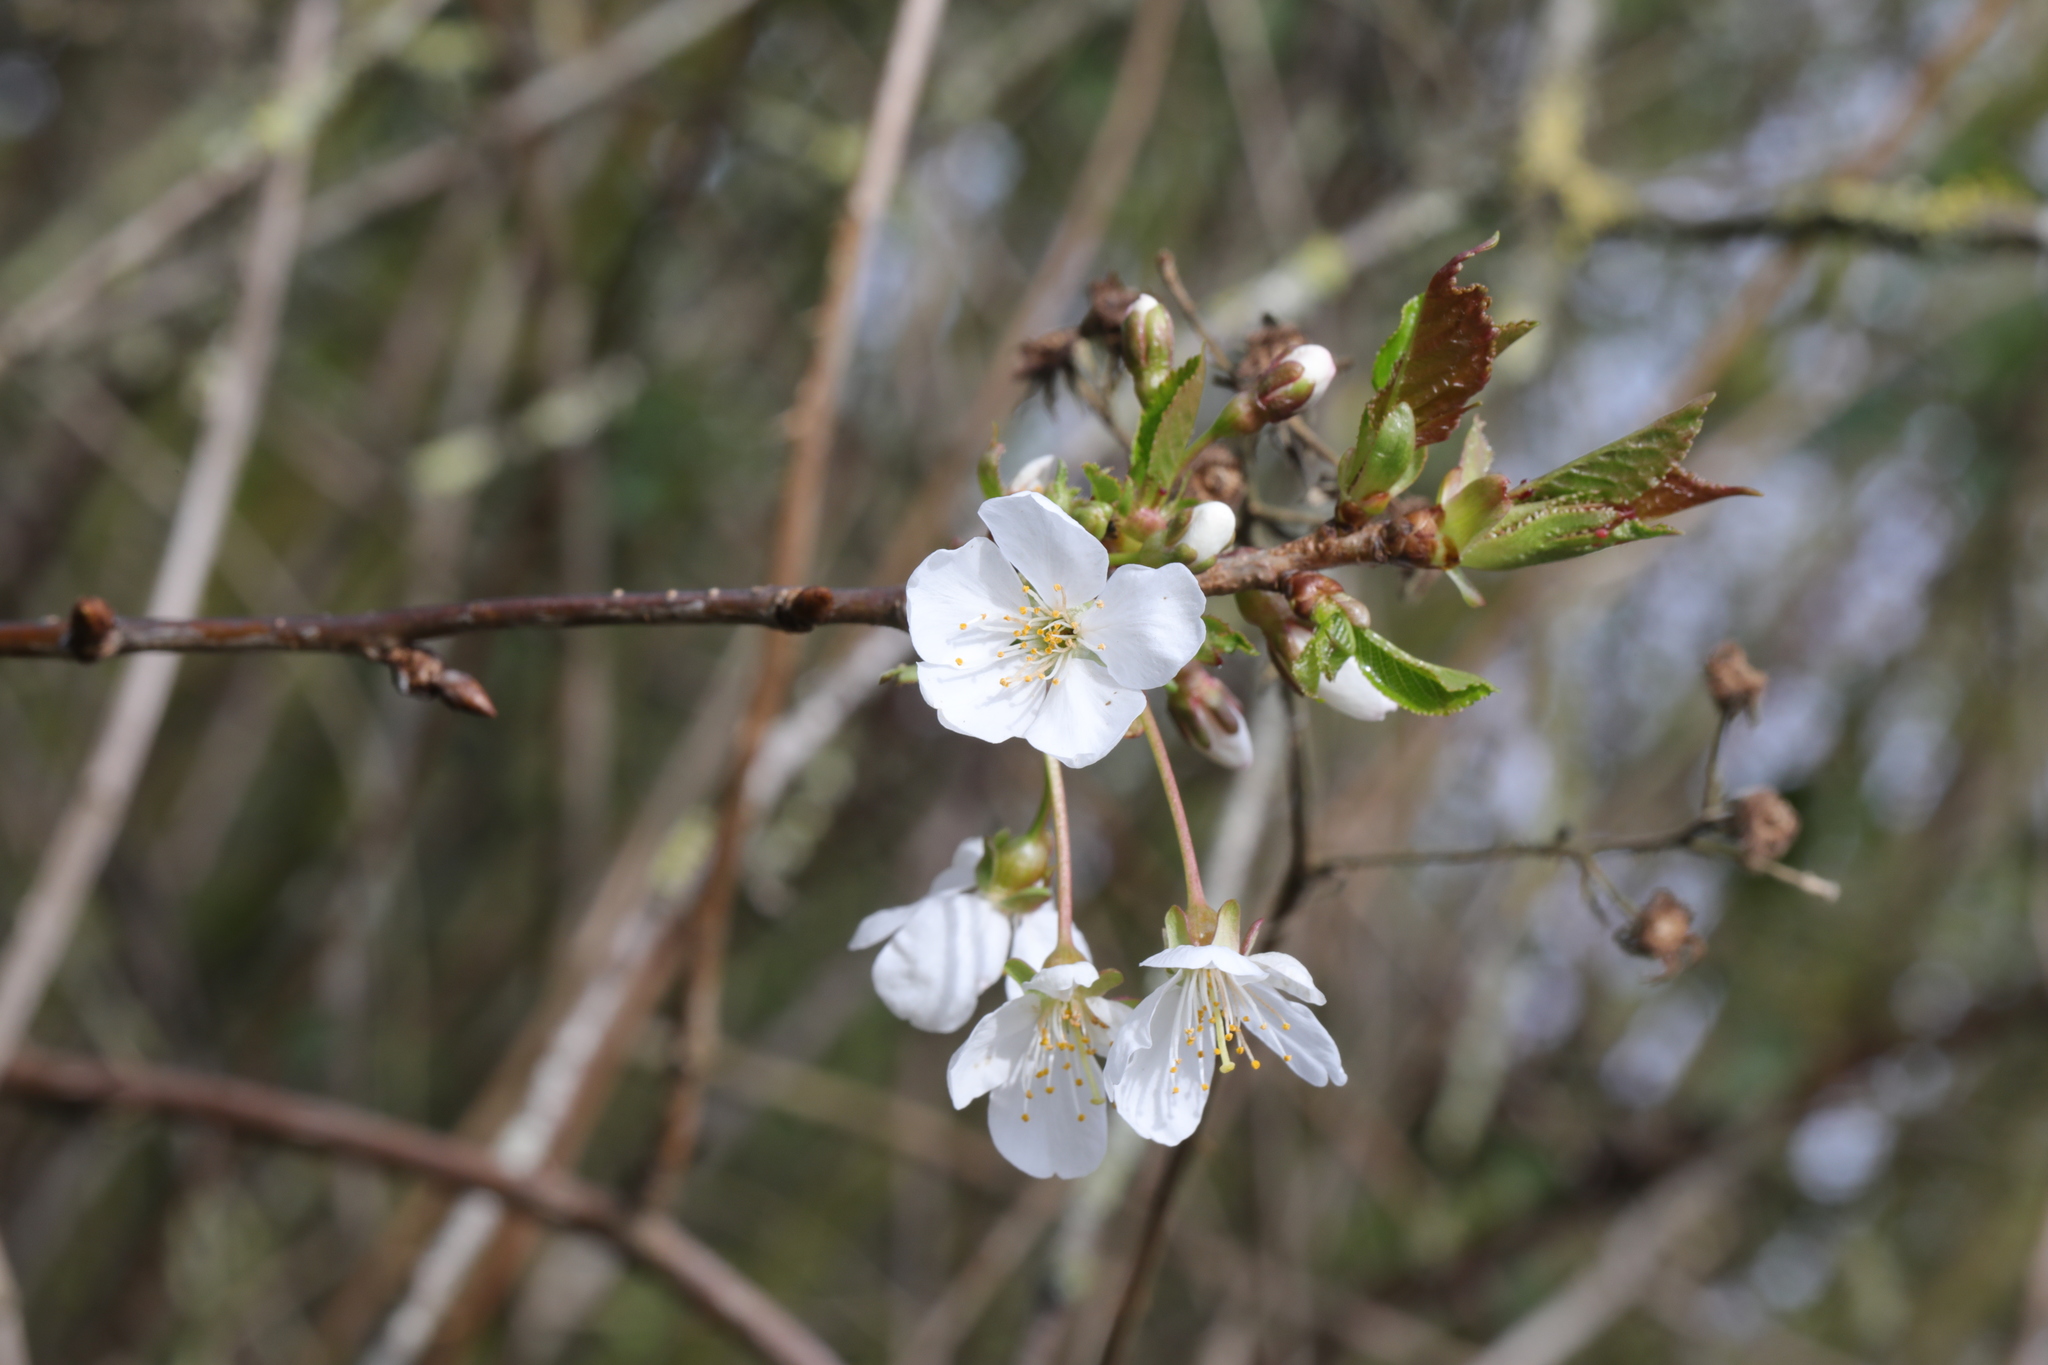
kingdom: Plantae
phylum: Tracheophyta
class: Magnoliopsida
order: Rosales
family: Rosaceae
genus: Prunus
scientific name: Prunus avium
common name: Sweet cherry
